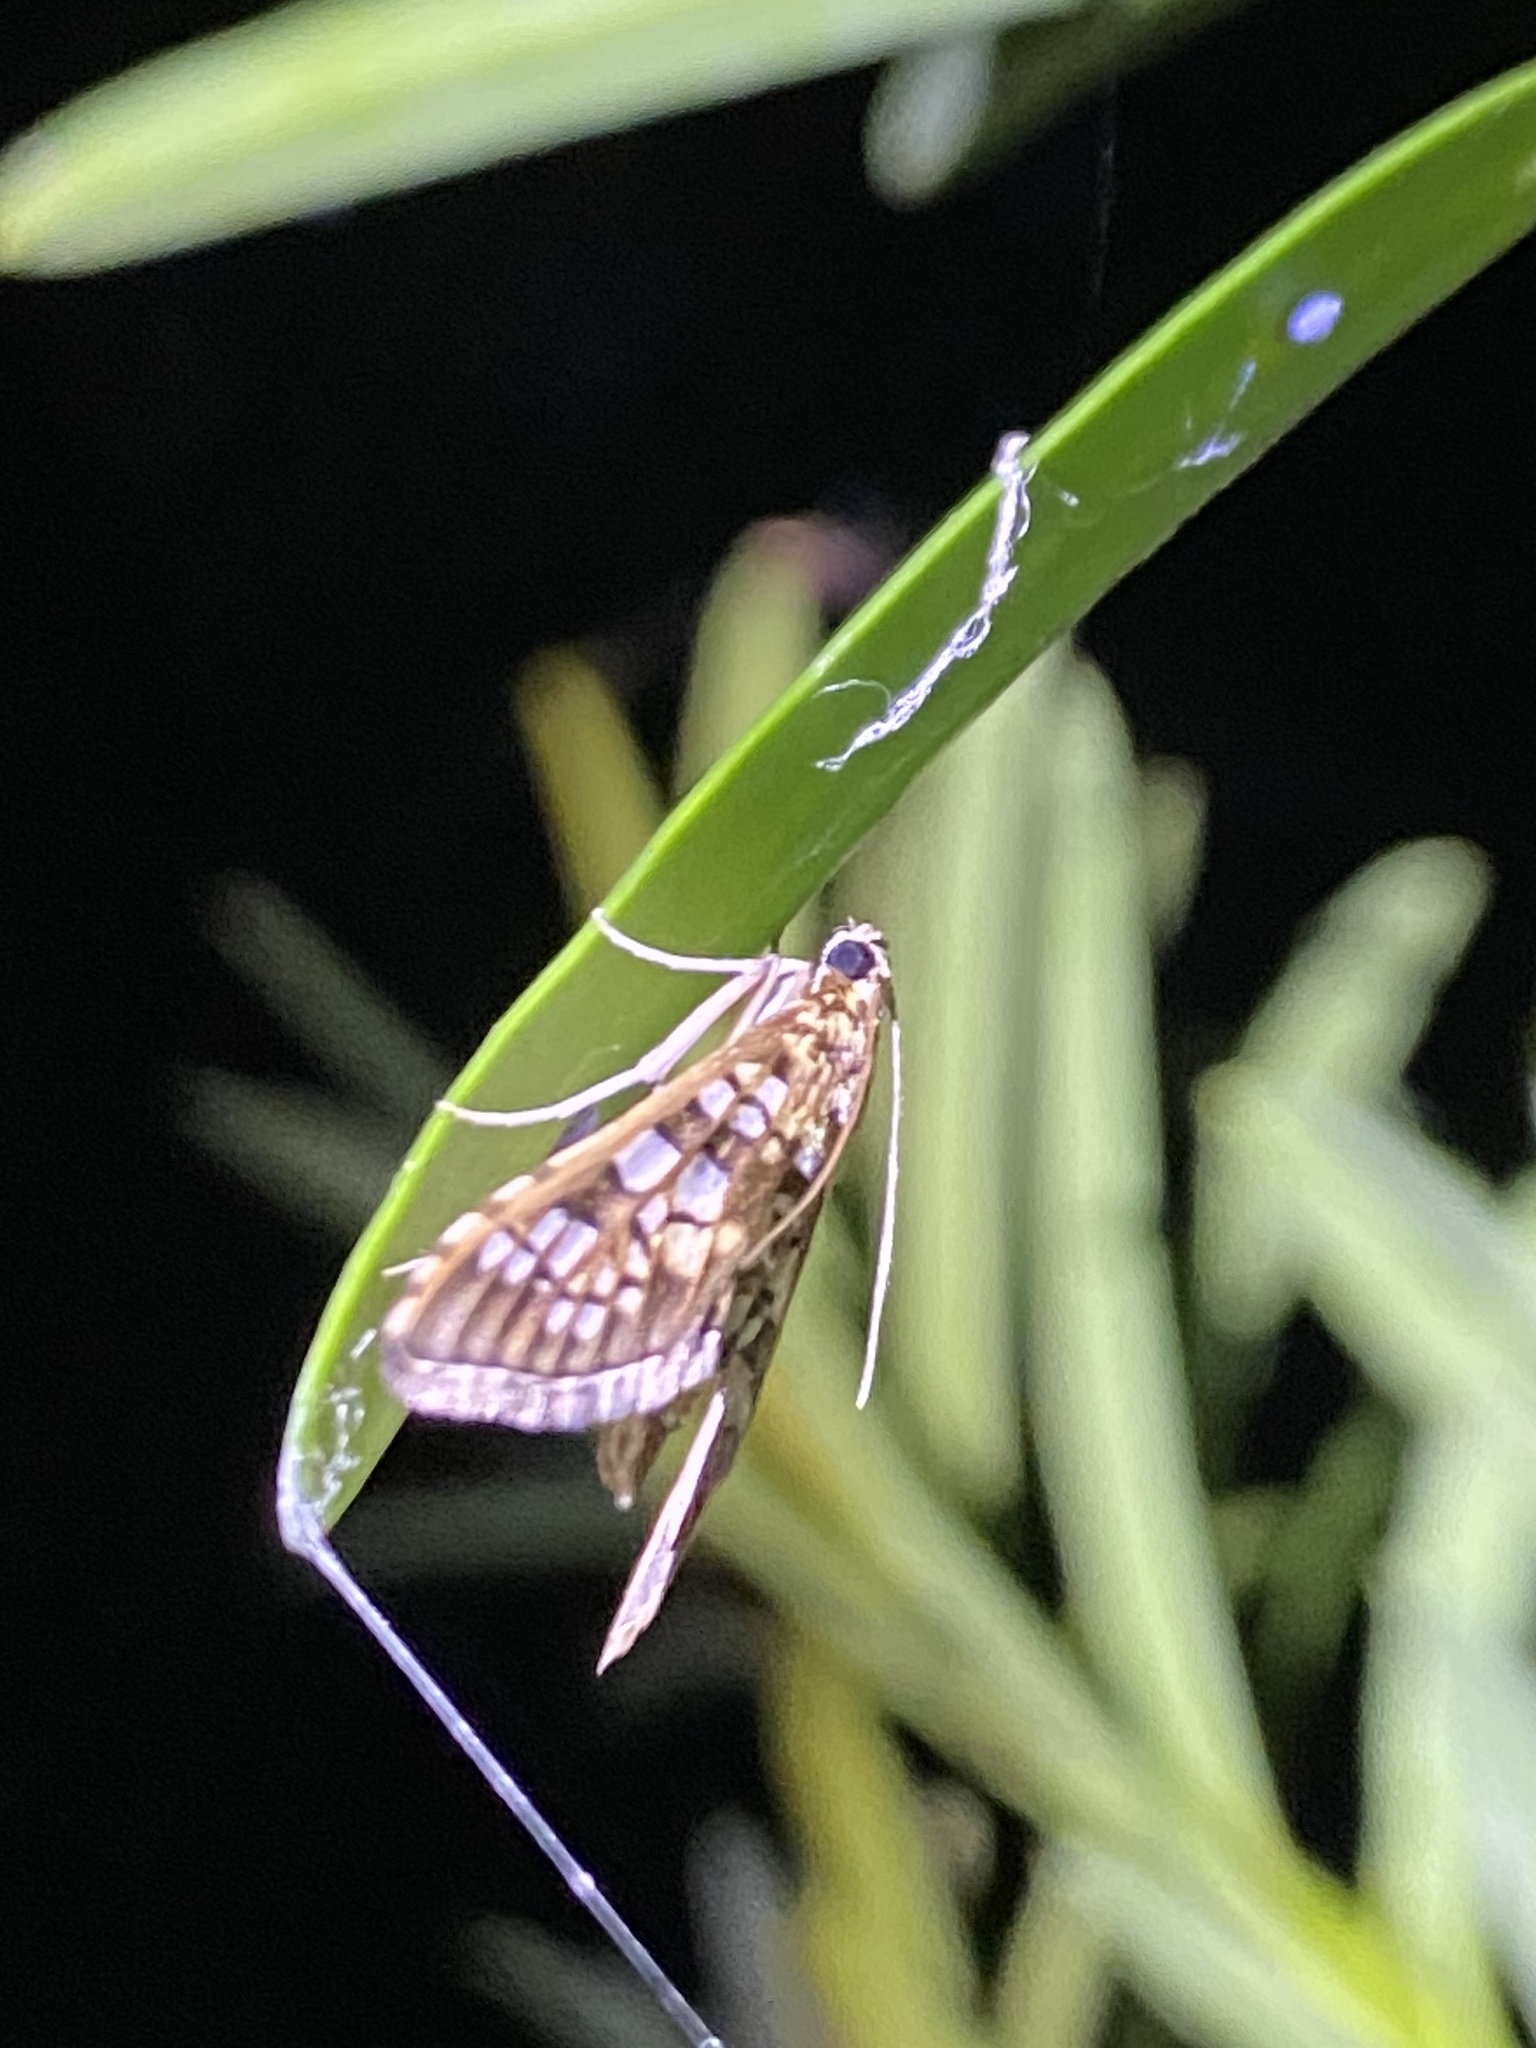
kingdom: Animalia
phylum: Arthropoda
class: Insecta
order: Lepidoptera
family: Crambidae
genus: Samea
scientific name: Samea ecclesialis
